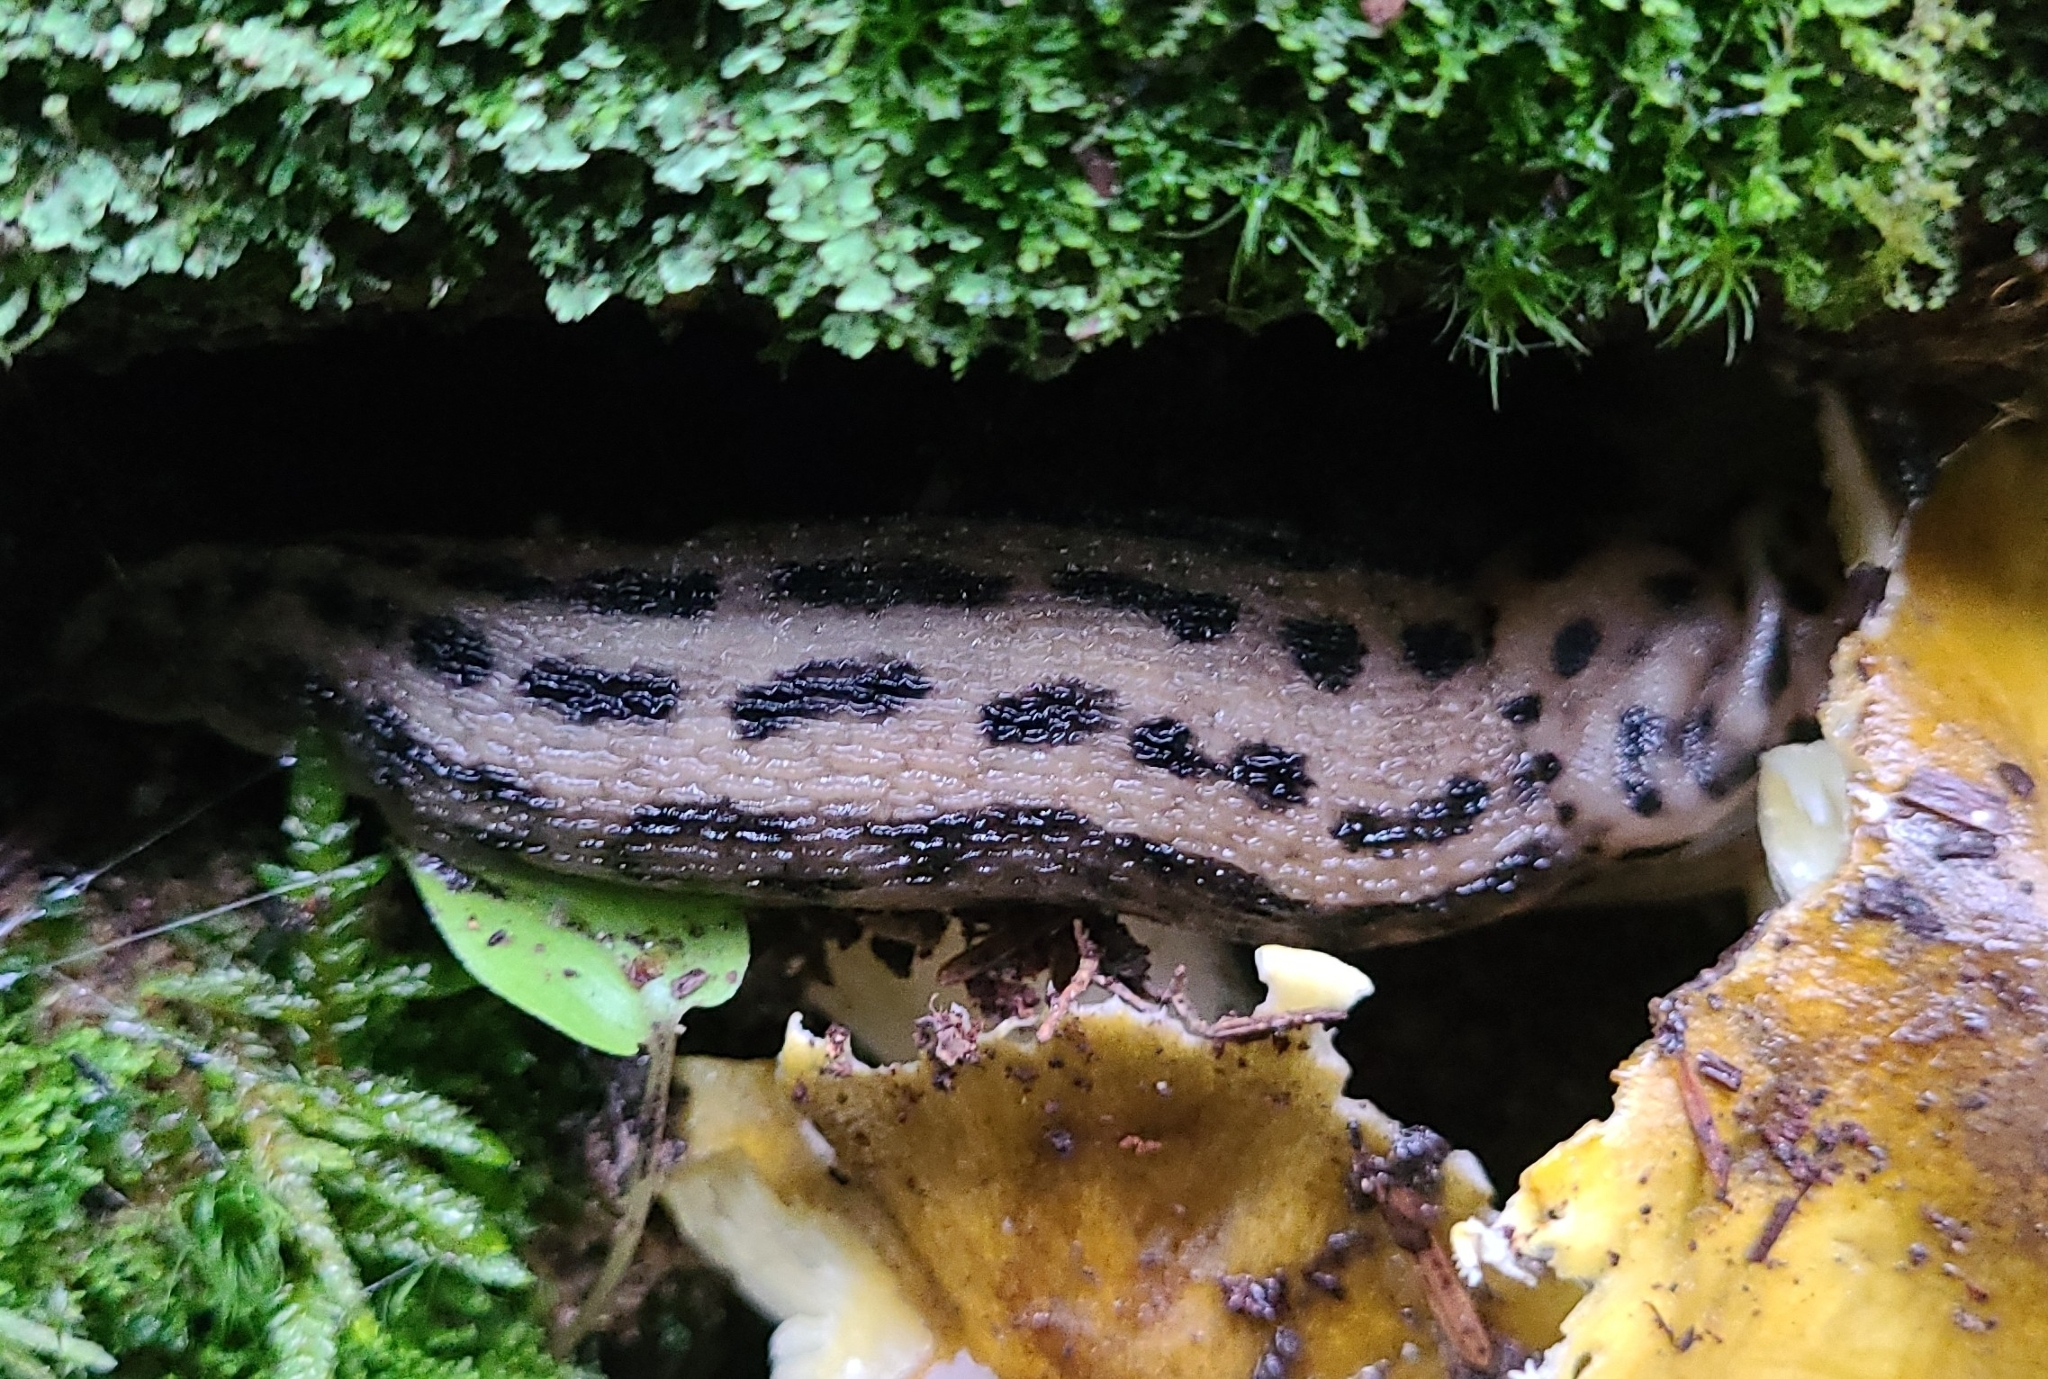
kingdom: Animalia
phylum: Mollusca
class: Gastropoda
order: Stylommatophora
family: Limacidae
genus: Limax
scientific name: Limax maximus
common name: Great grey slug
